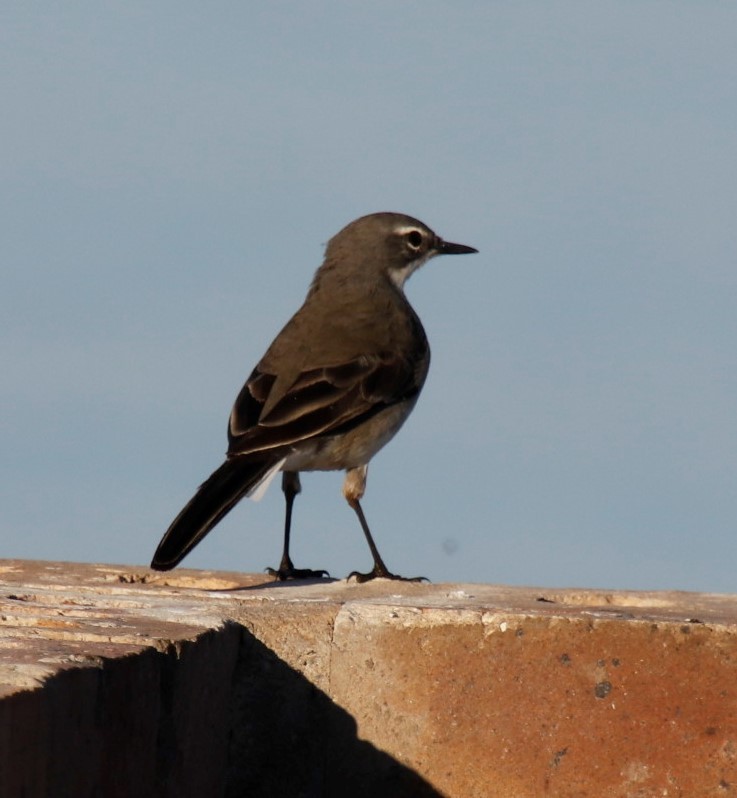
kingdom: Animalia
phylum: Chordata
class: Aves
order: Passeriformes
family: Motacillidae
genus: Motacilla
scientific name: Motacilla capensis
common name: Cape wagtail
